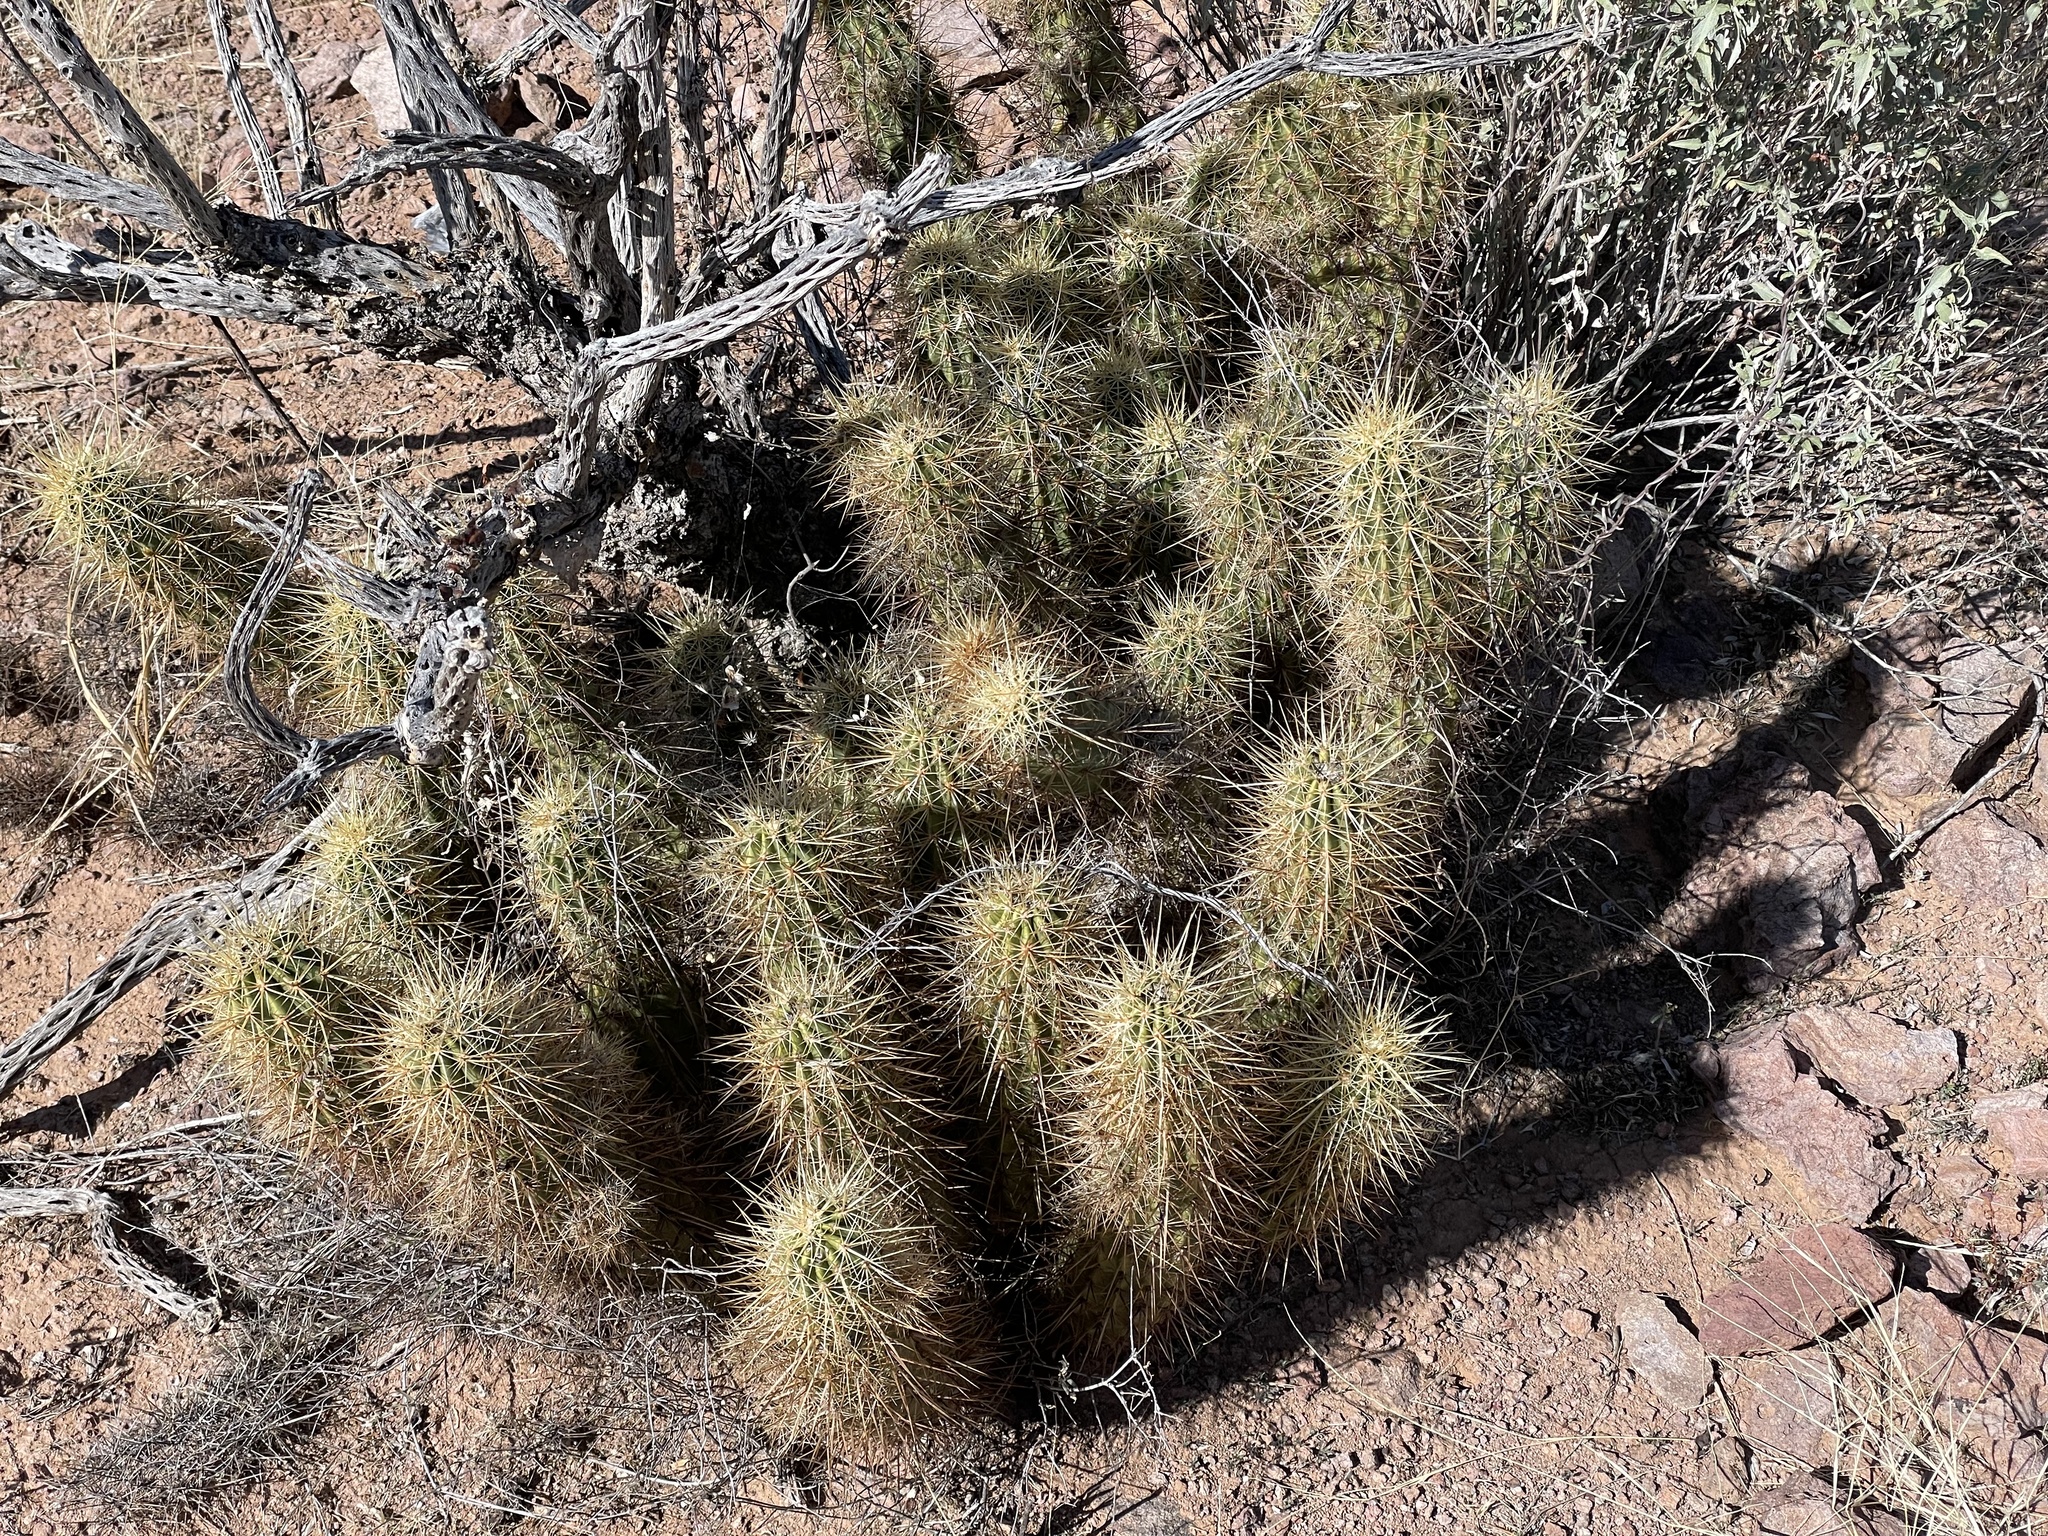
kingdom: Plantae
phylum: Tracheophyta
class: Magnoliopsida
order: Caryophyllales
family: Cactaceae
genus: Echinocereus
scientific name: Echinocereus nicholii
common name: Nichol's hedgehog cactus
